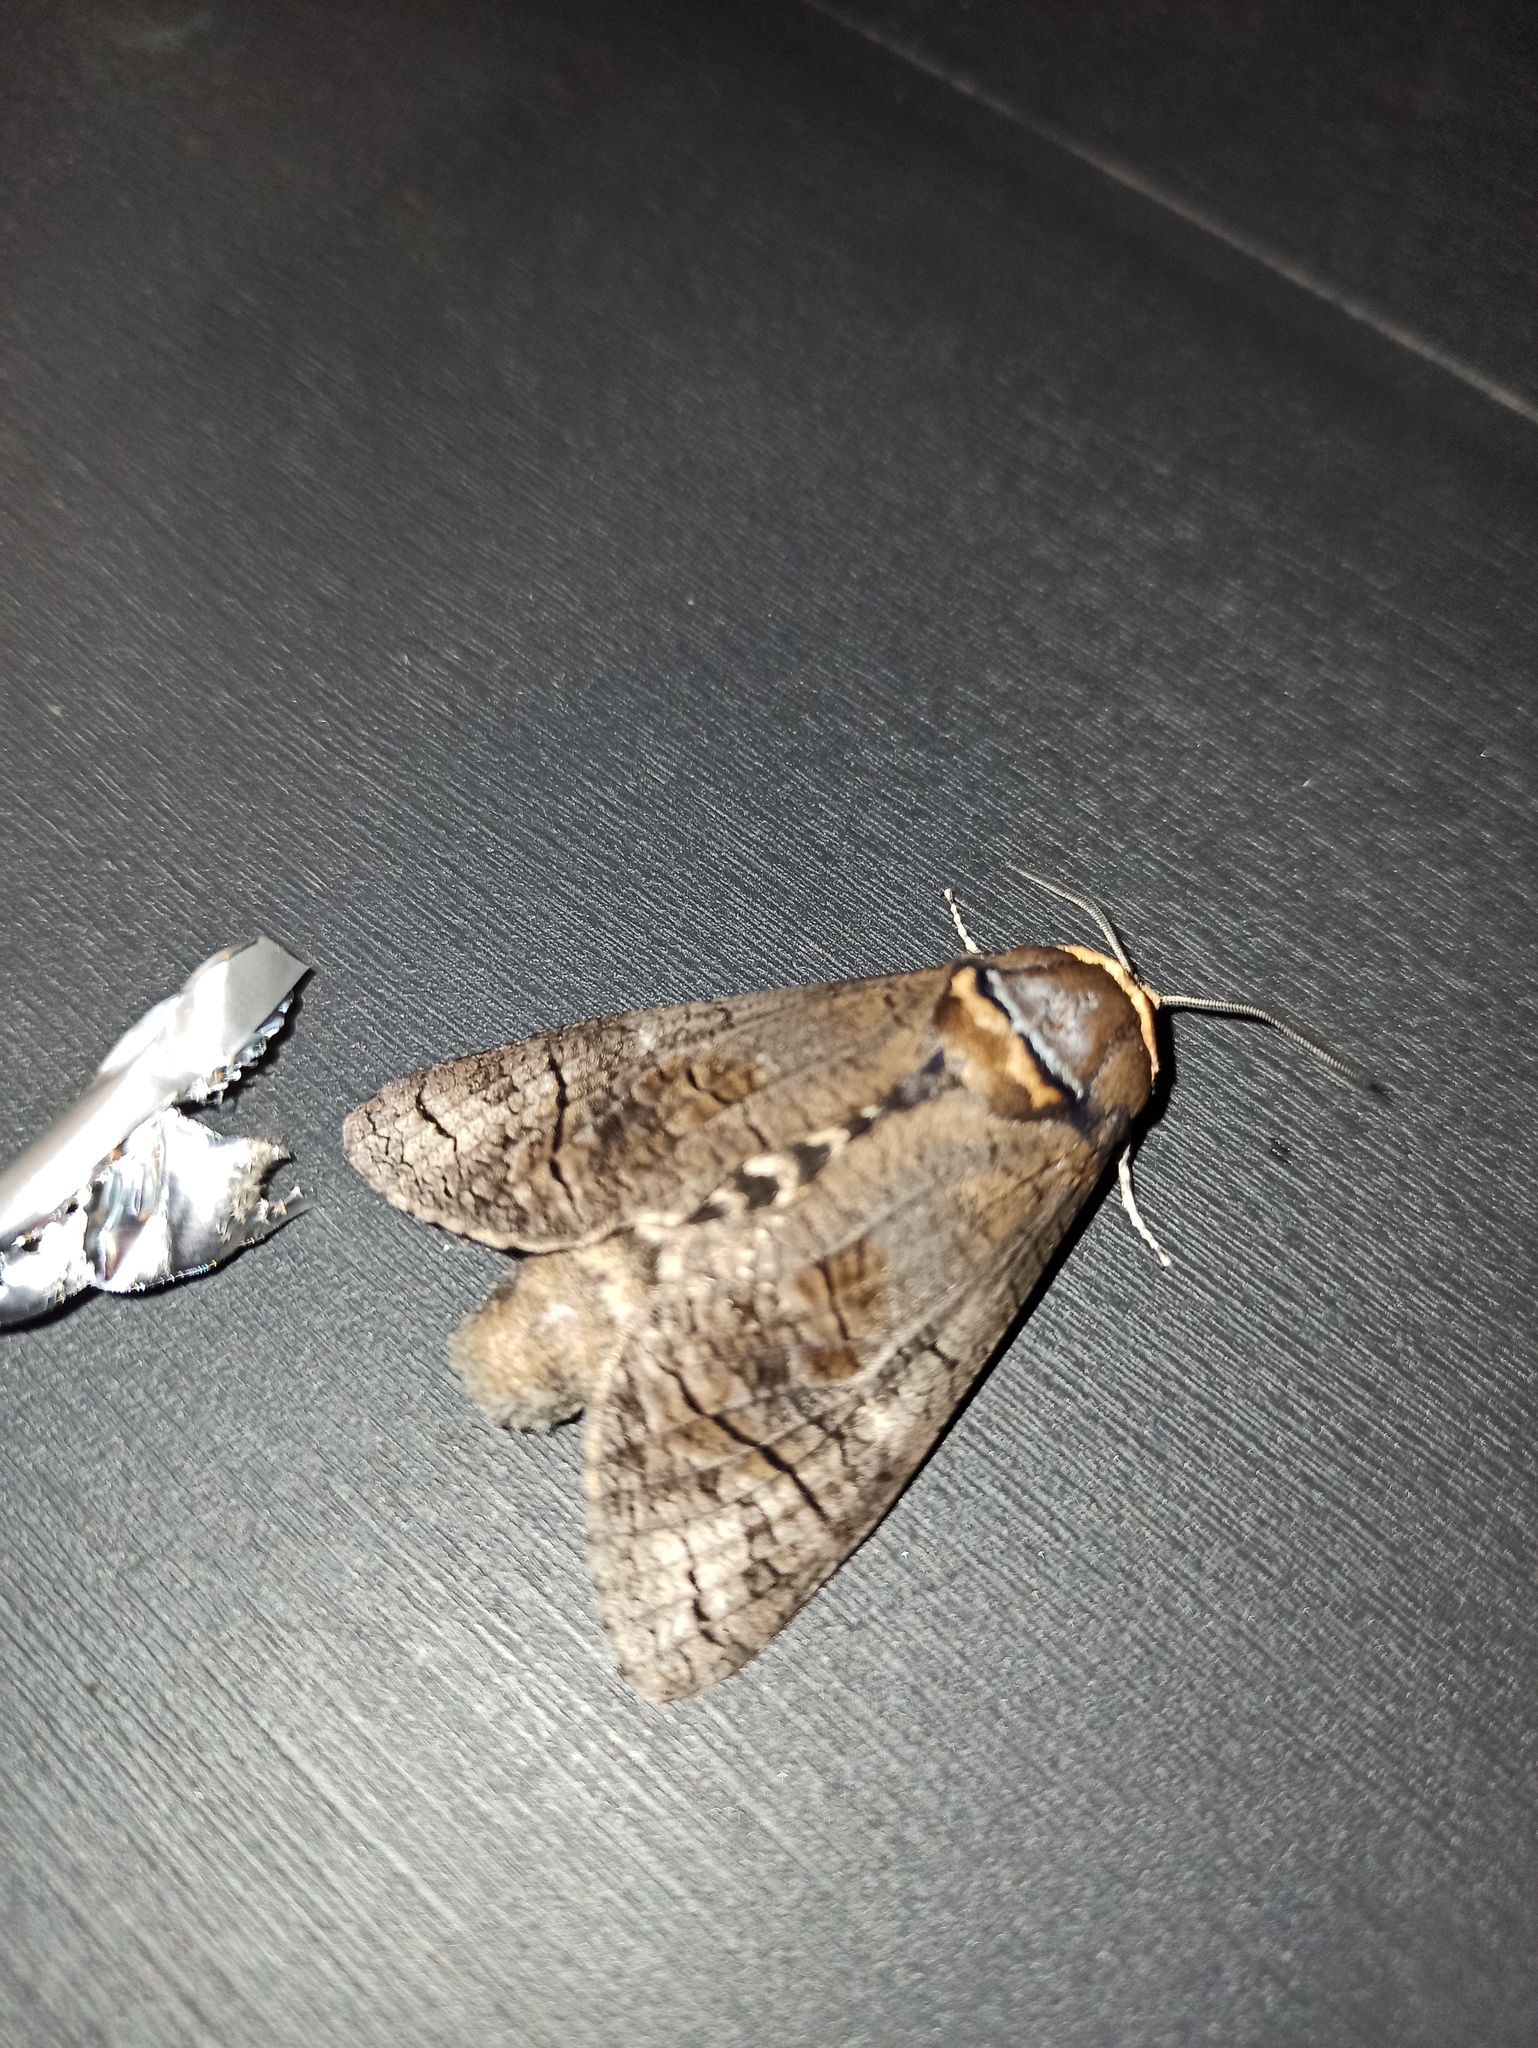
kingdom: Animalia
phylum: Arthropoda
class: Insecta
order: Lepidoptera
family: Cossidae
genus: Cossus
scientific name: Cossus cossus
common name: Goat moth
